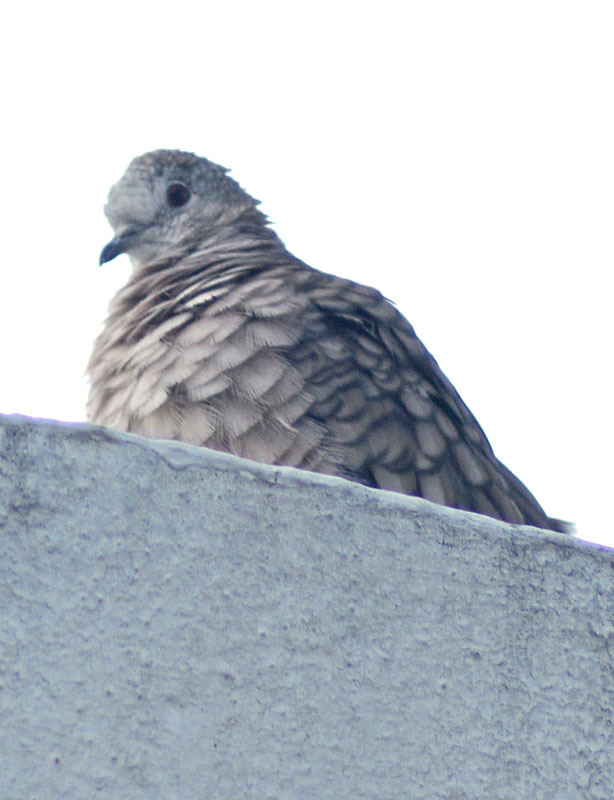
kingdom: Animalia
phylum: Chordata
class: Aves
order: Columbiformes
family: Columbidae
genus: Columbina
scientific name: Columbina inca
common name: Inca dove
